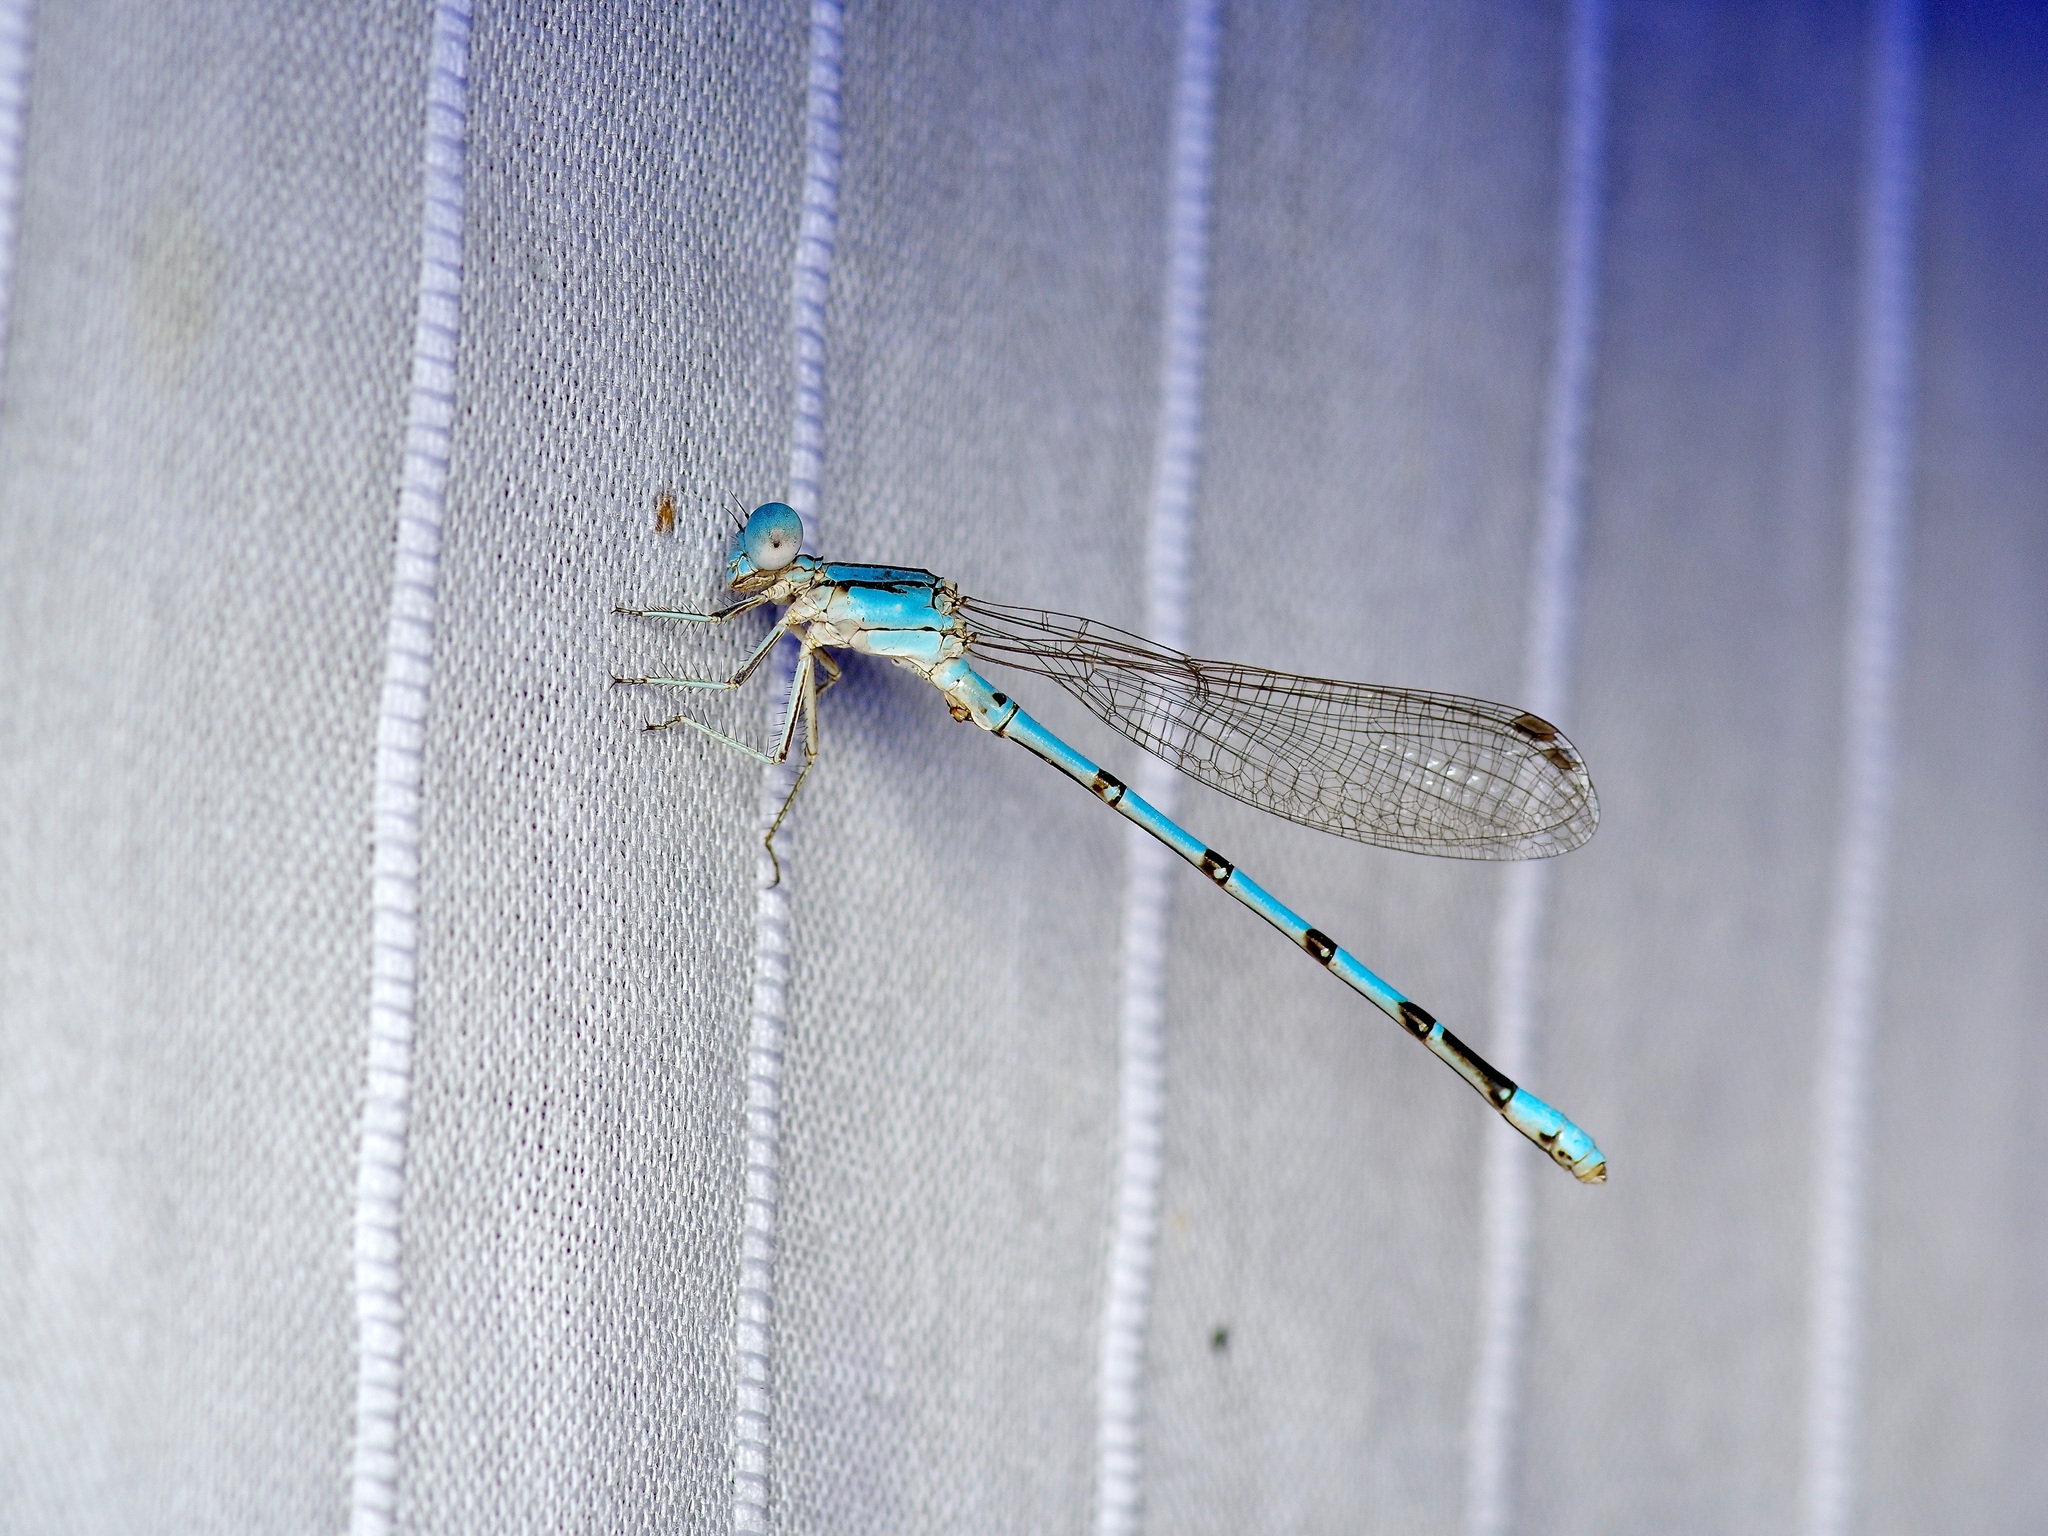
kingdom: Animalia
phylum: Arthropoda
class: Insecta
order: Odonata
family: Coenagrionidae
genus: Argia
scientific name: Argia nahuana
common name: Aztec dancer
